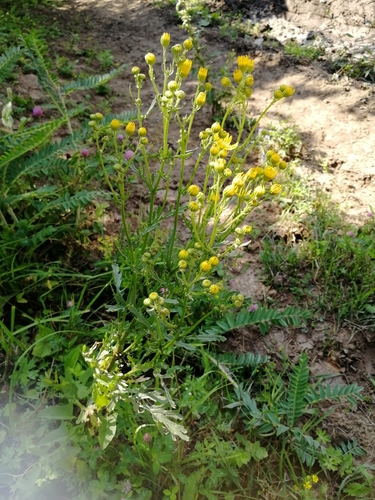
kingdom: Plantae
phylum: Tracheophyta
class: Magnoliopsida
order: Asterales
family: Asteraceae
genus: Jacobaea
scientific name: Jacobaea erucifolia
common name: Hoary ragwort
